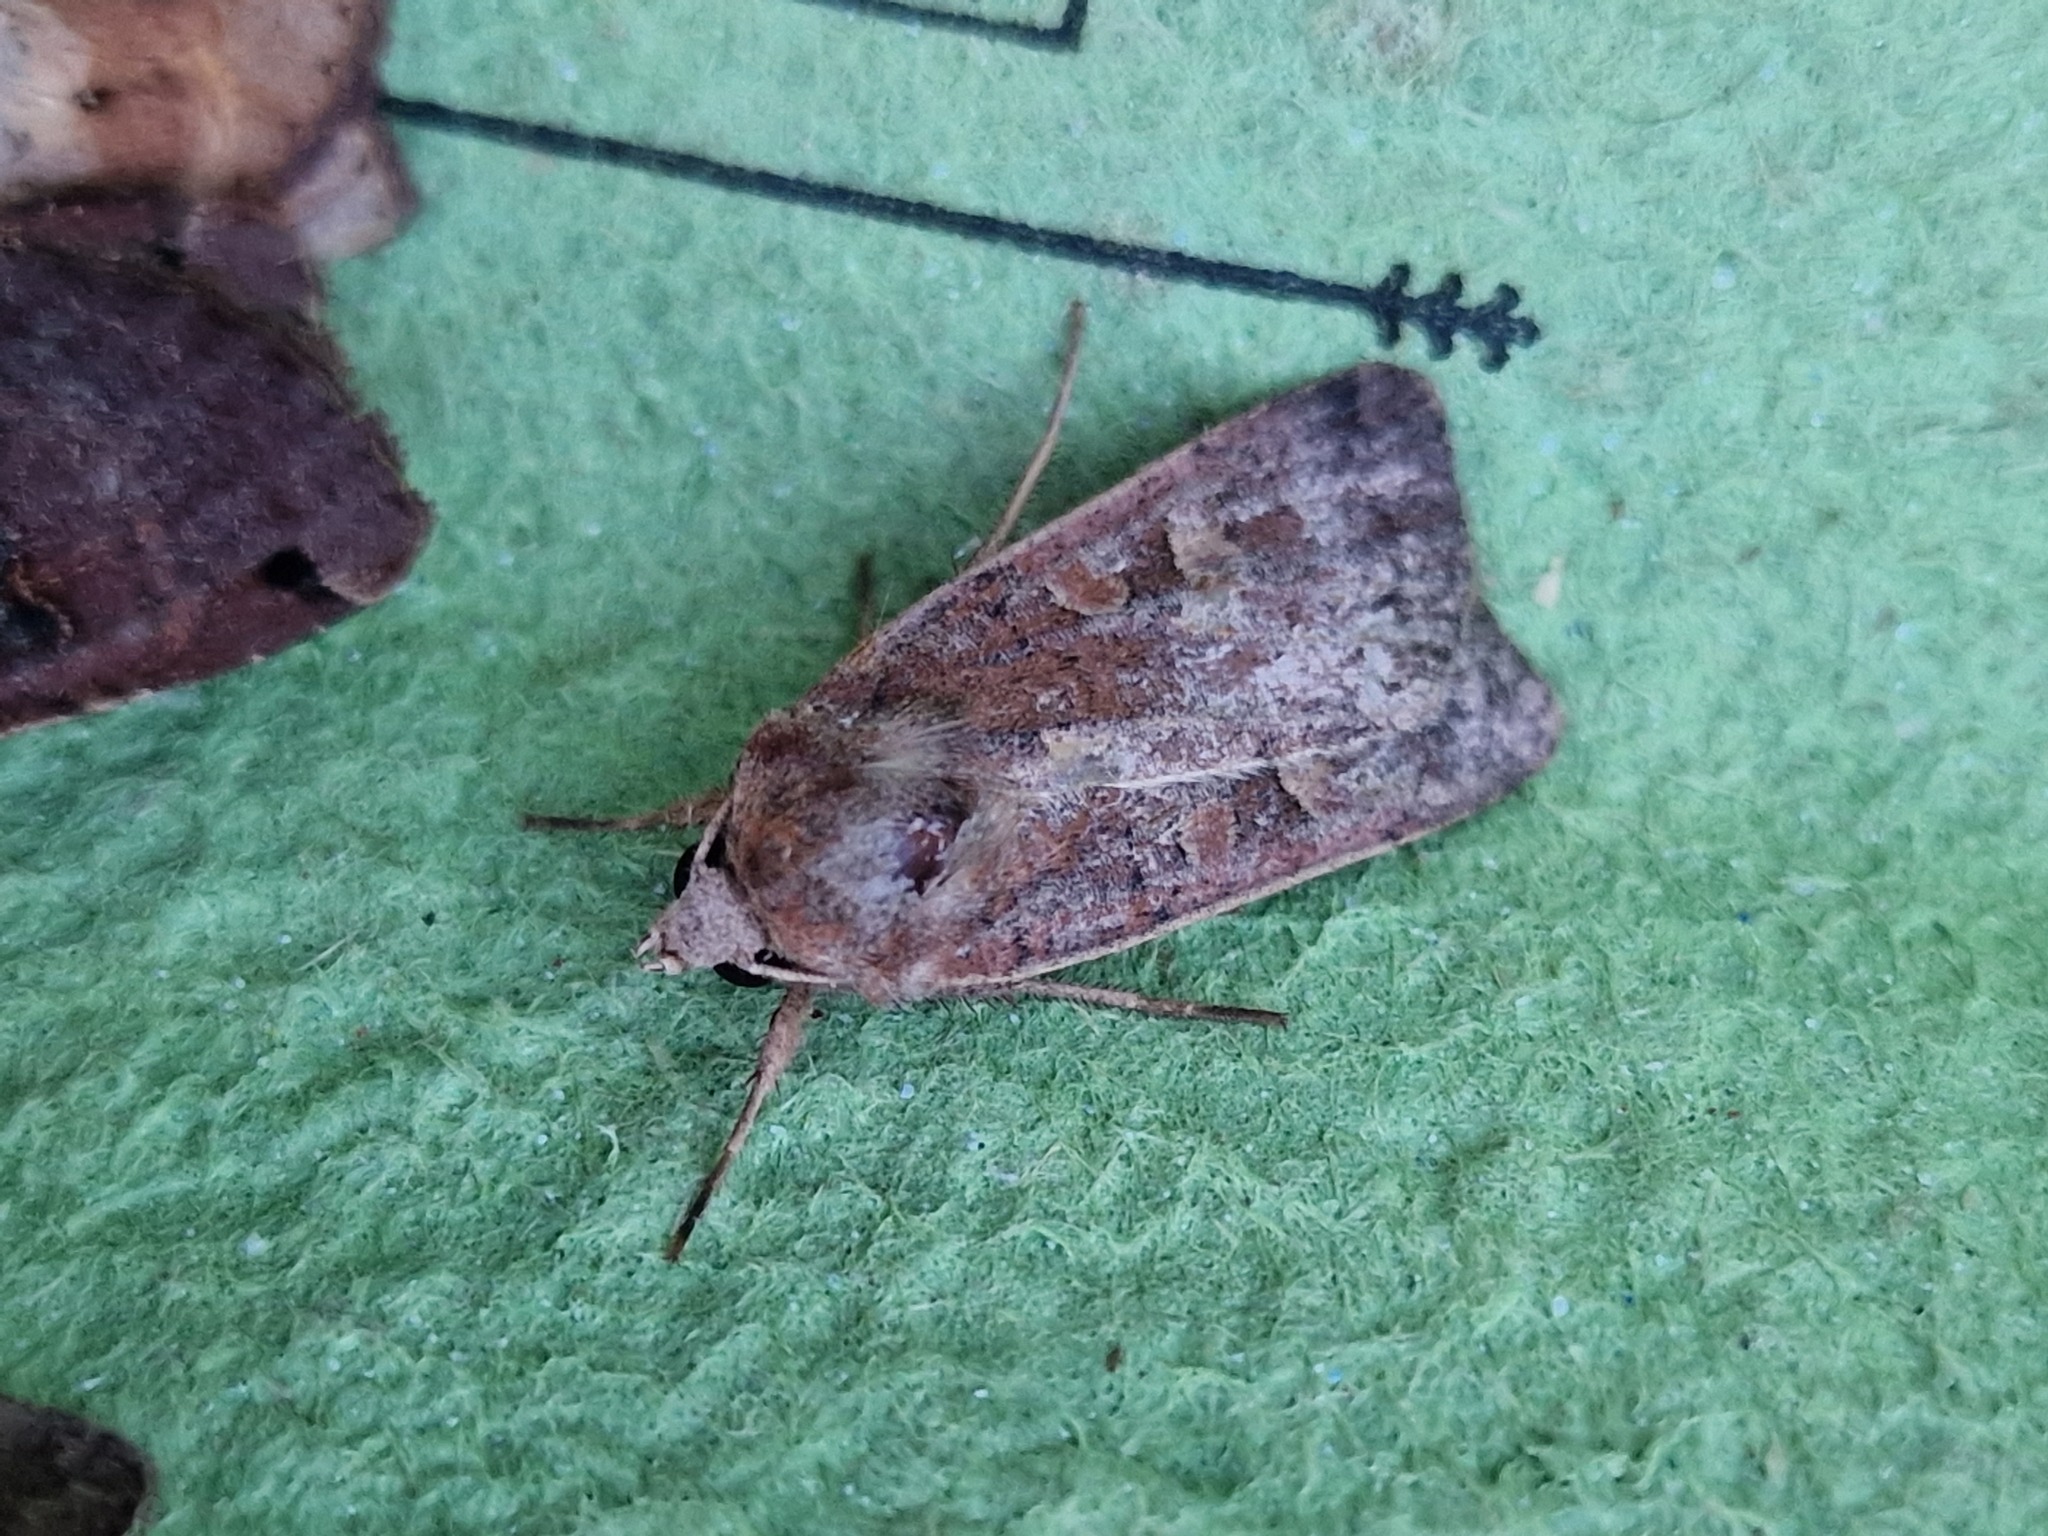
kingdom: Animalia
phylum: Arthropoda
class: Insecta
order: Lepidoptera
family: Noctuidae
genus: Xestia
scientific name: Xestia xanthographa
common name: Square-spot rustic
